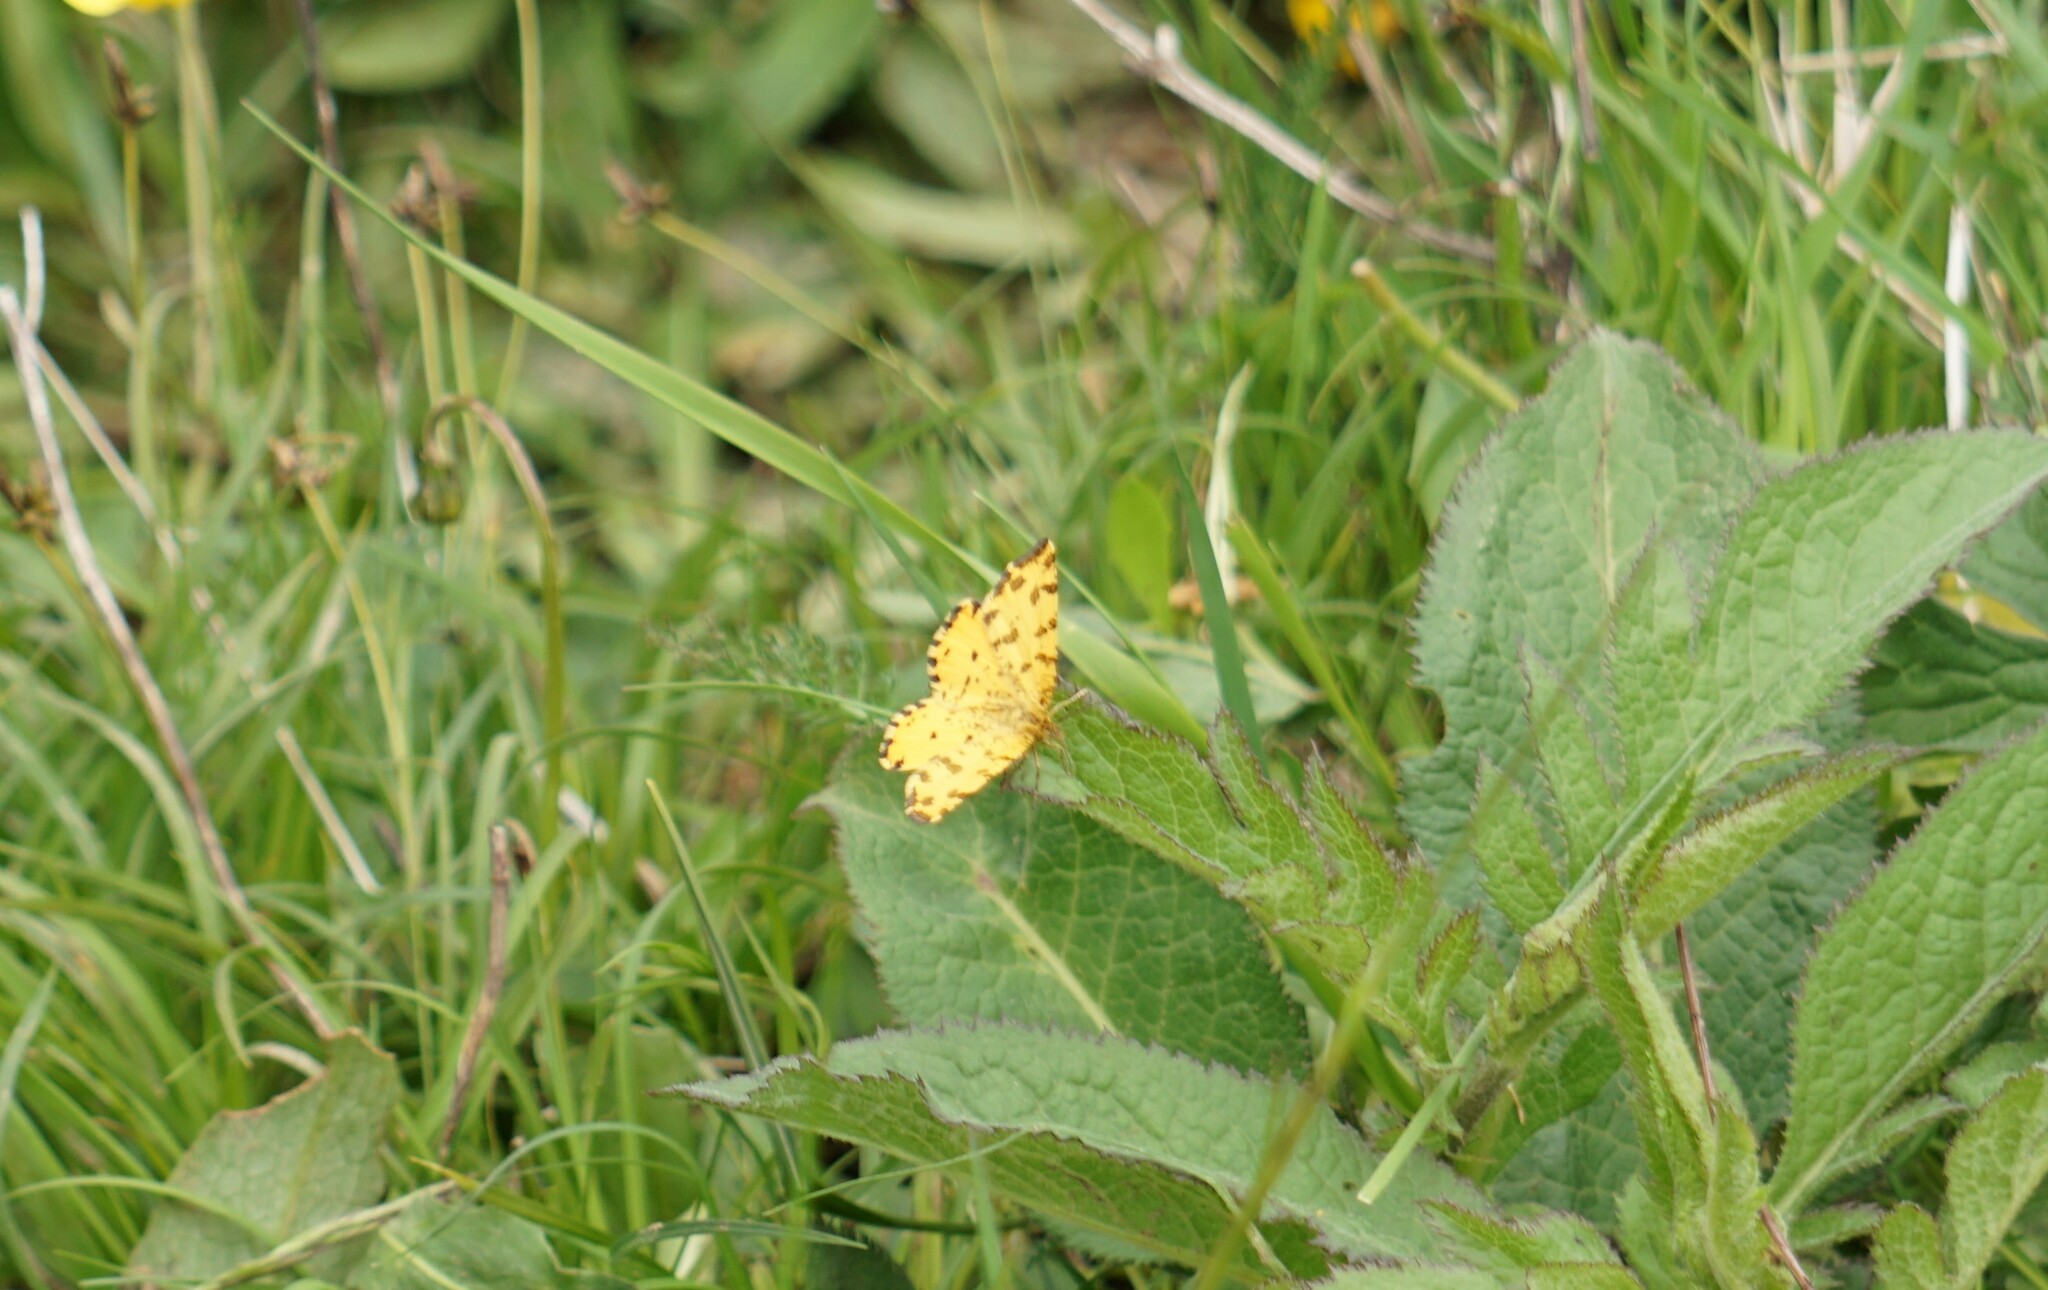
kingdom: Animalia
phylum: Arthropoda
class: Insecta
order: Lepidoptera
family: Geometridae
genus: Pseudopanthera
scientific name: Pseudopanthera macularia
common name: Speckled yellow
